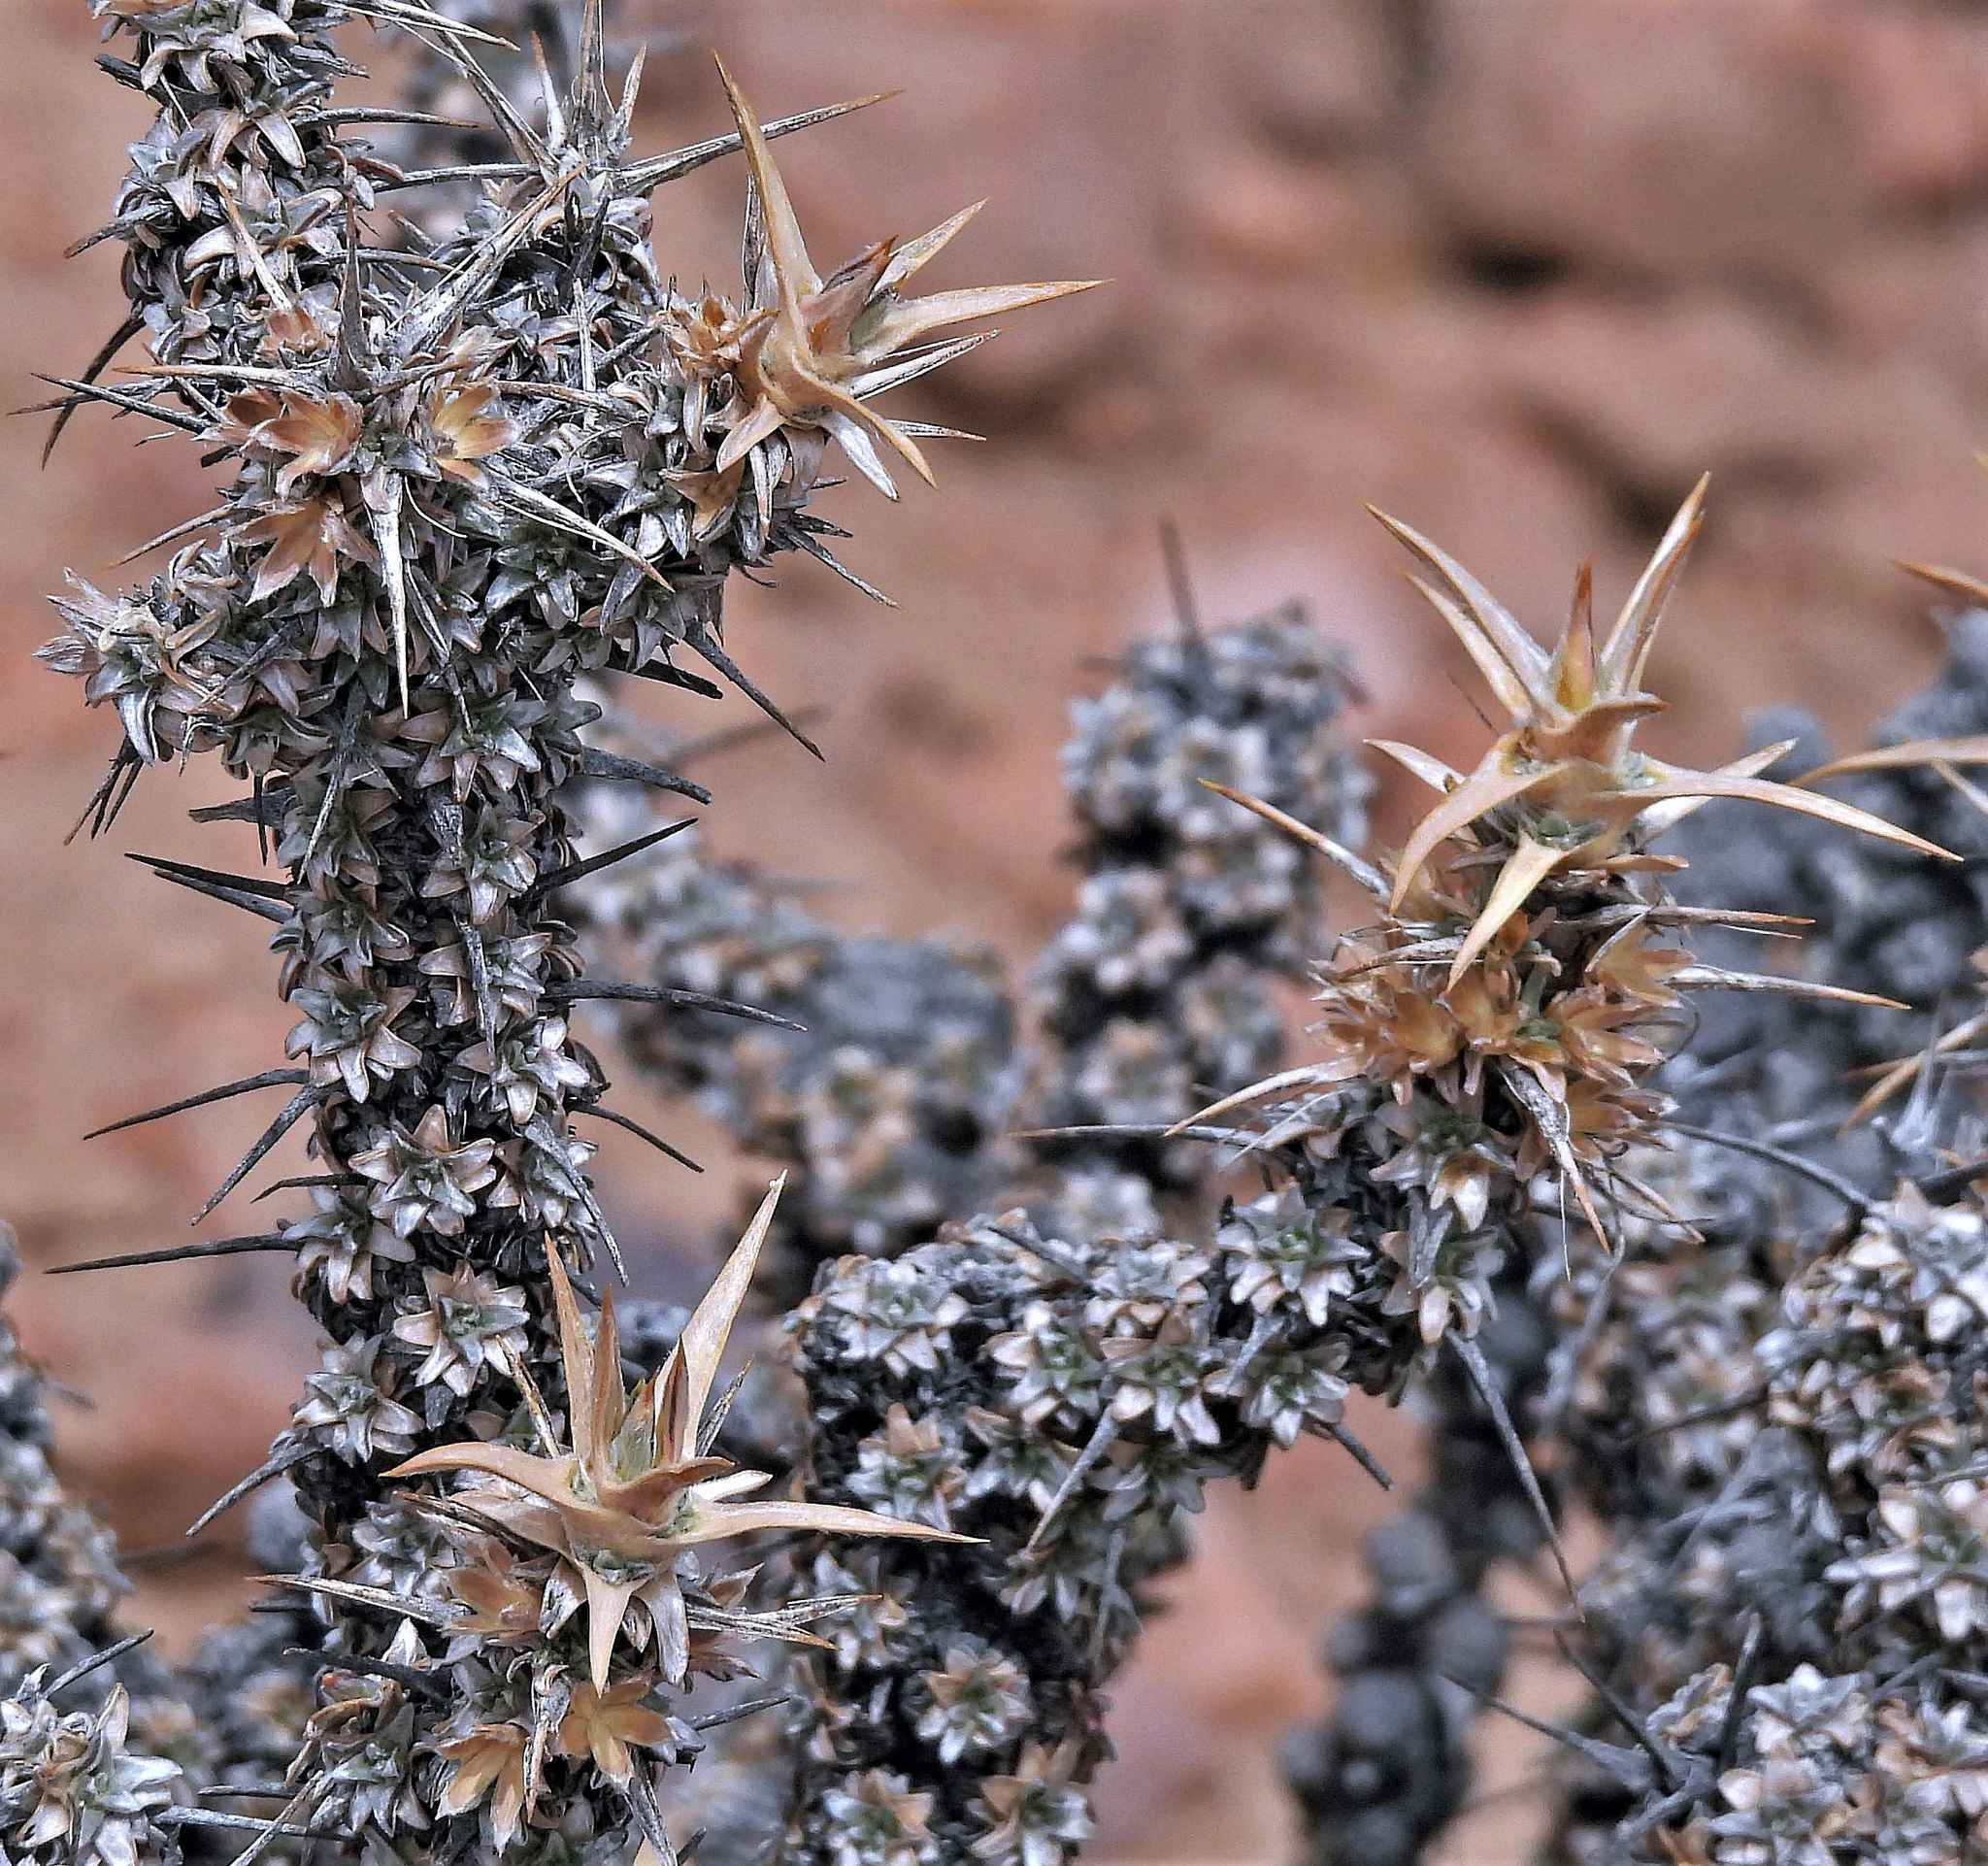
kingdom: Plantae
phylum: Tracheophyta
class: Magnoliopsida
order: Asterales
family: Asteraceae
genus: Nassauvia
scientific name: Nassauvia axillaris
